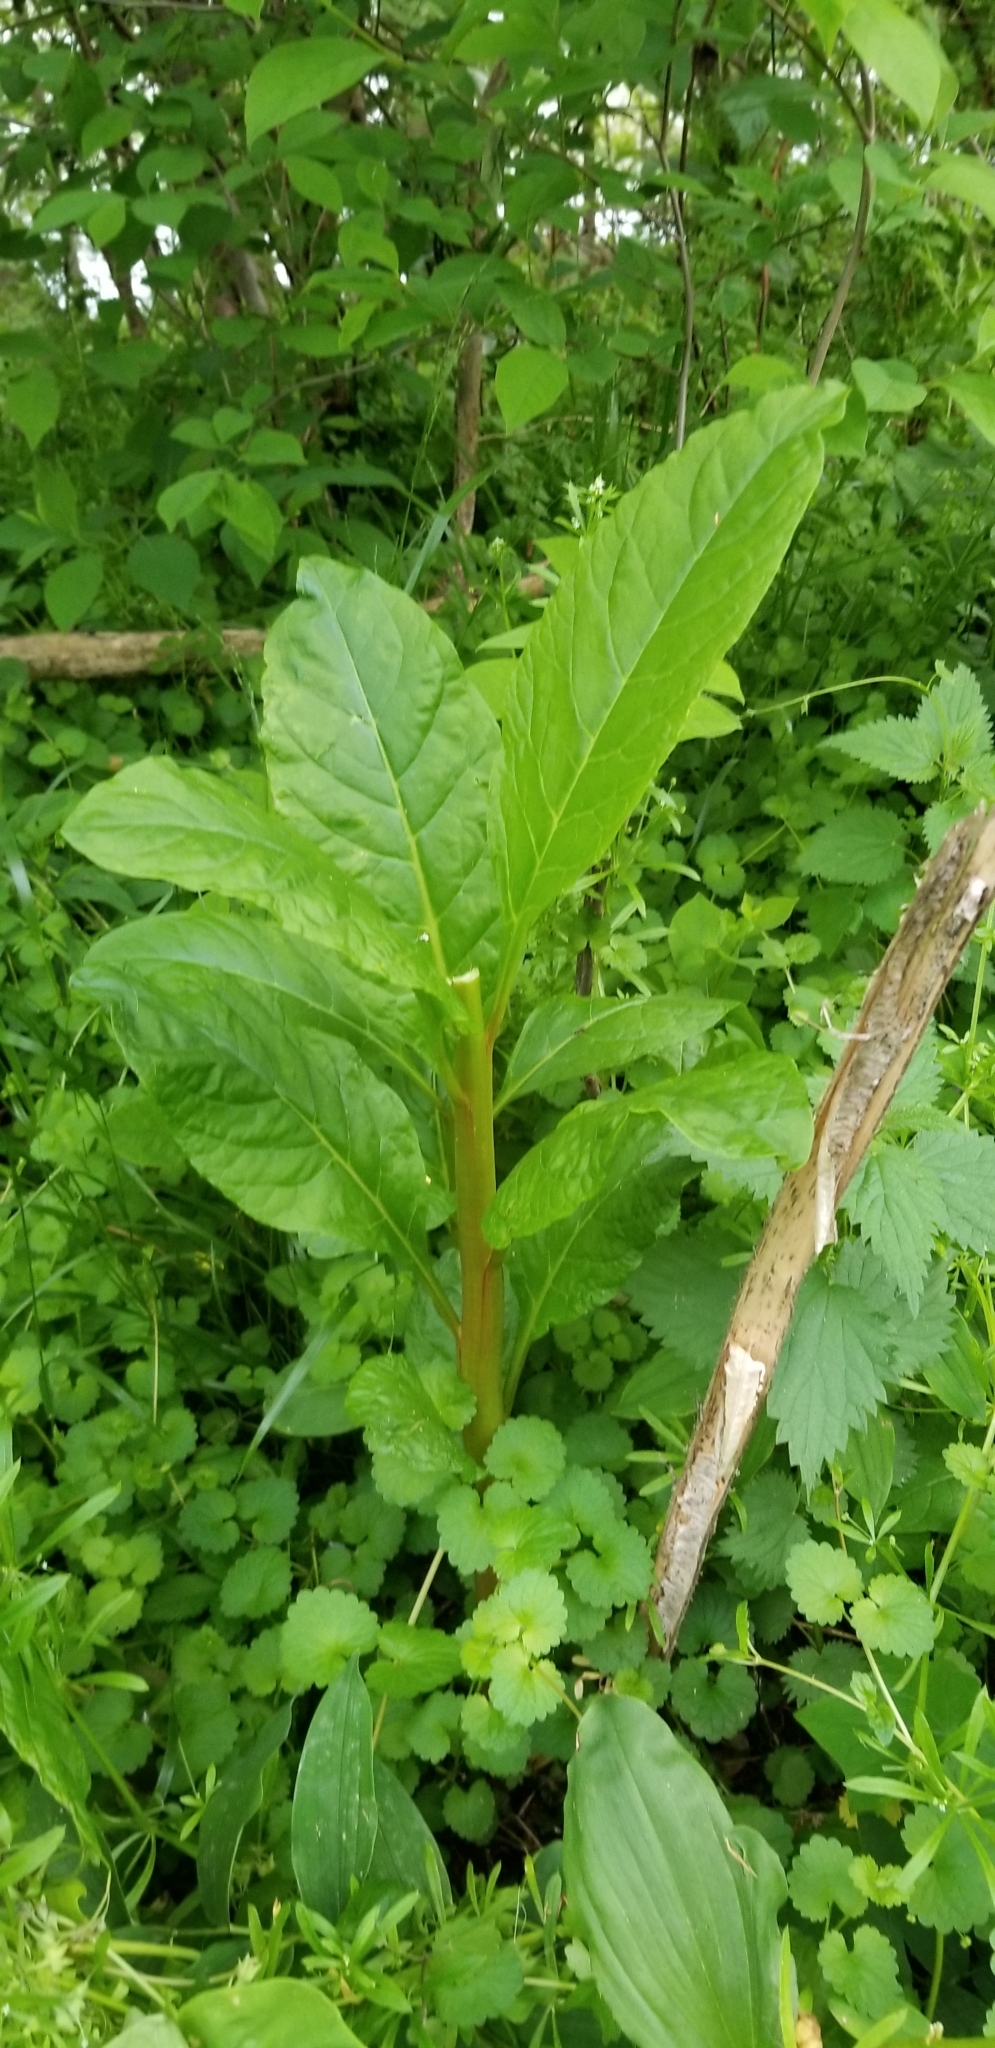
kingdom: Plantae
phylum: Tracheophyta
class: Magnoliopsida
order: Caryophyllales
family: Phytolaccaceae
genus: Phytolacca
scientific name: Phytolacca americana
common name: American pokeweed
